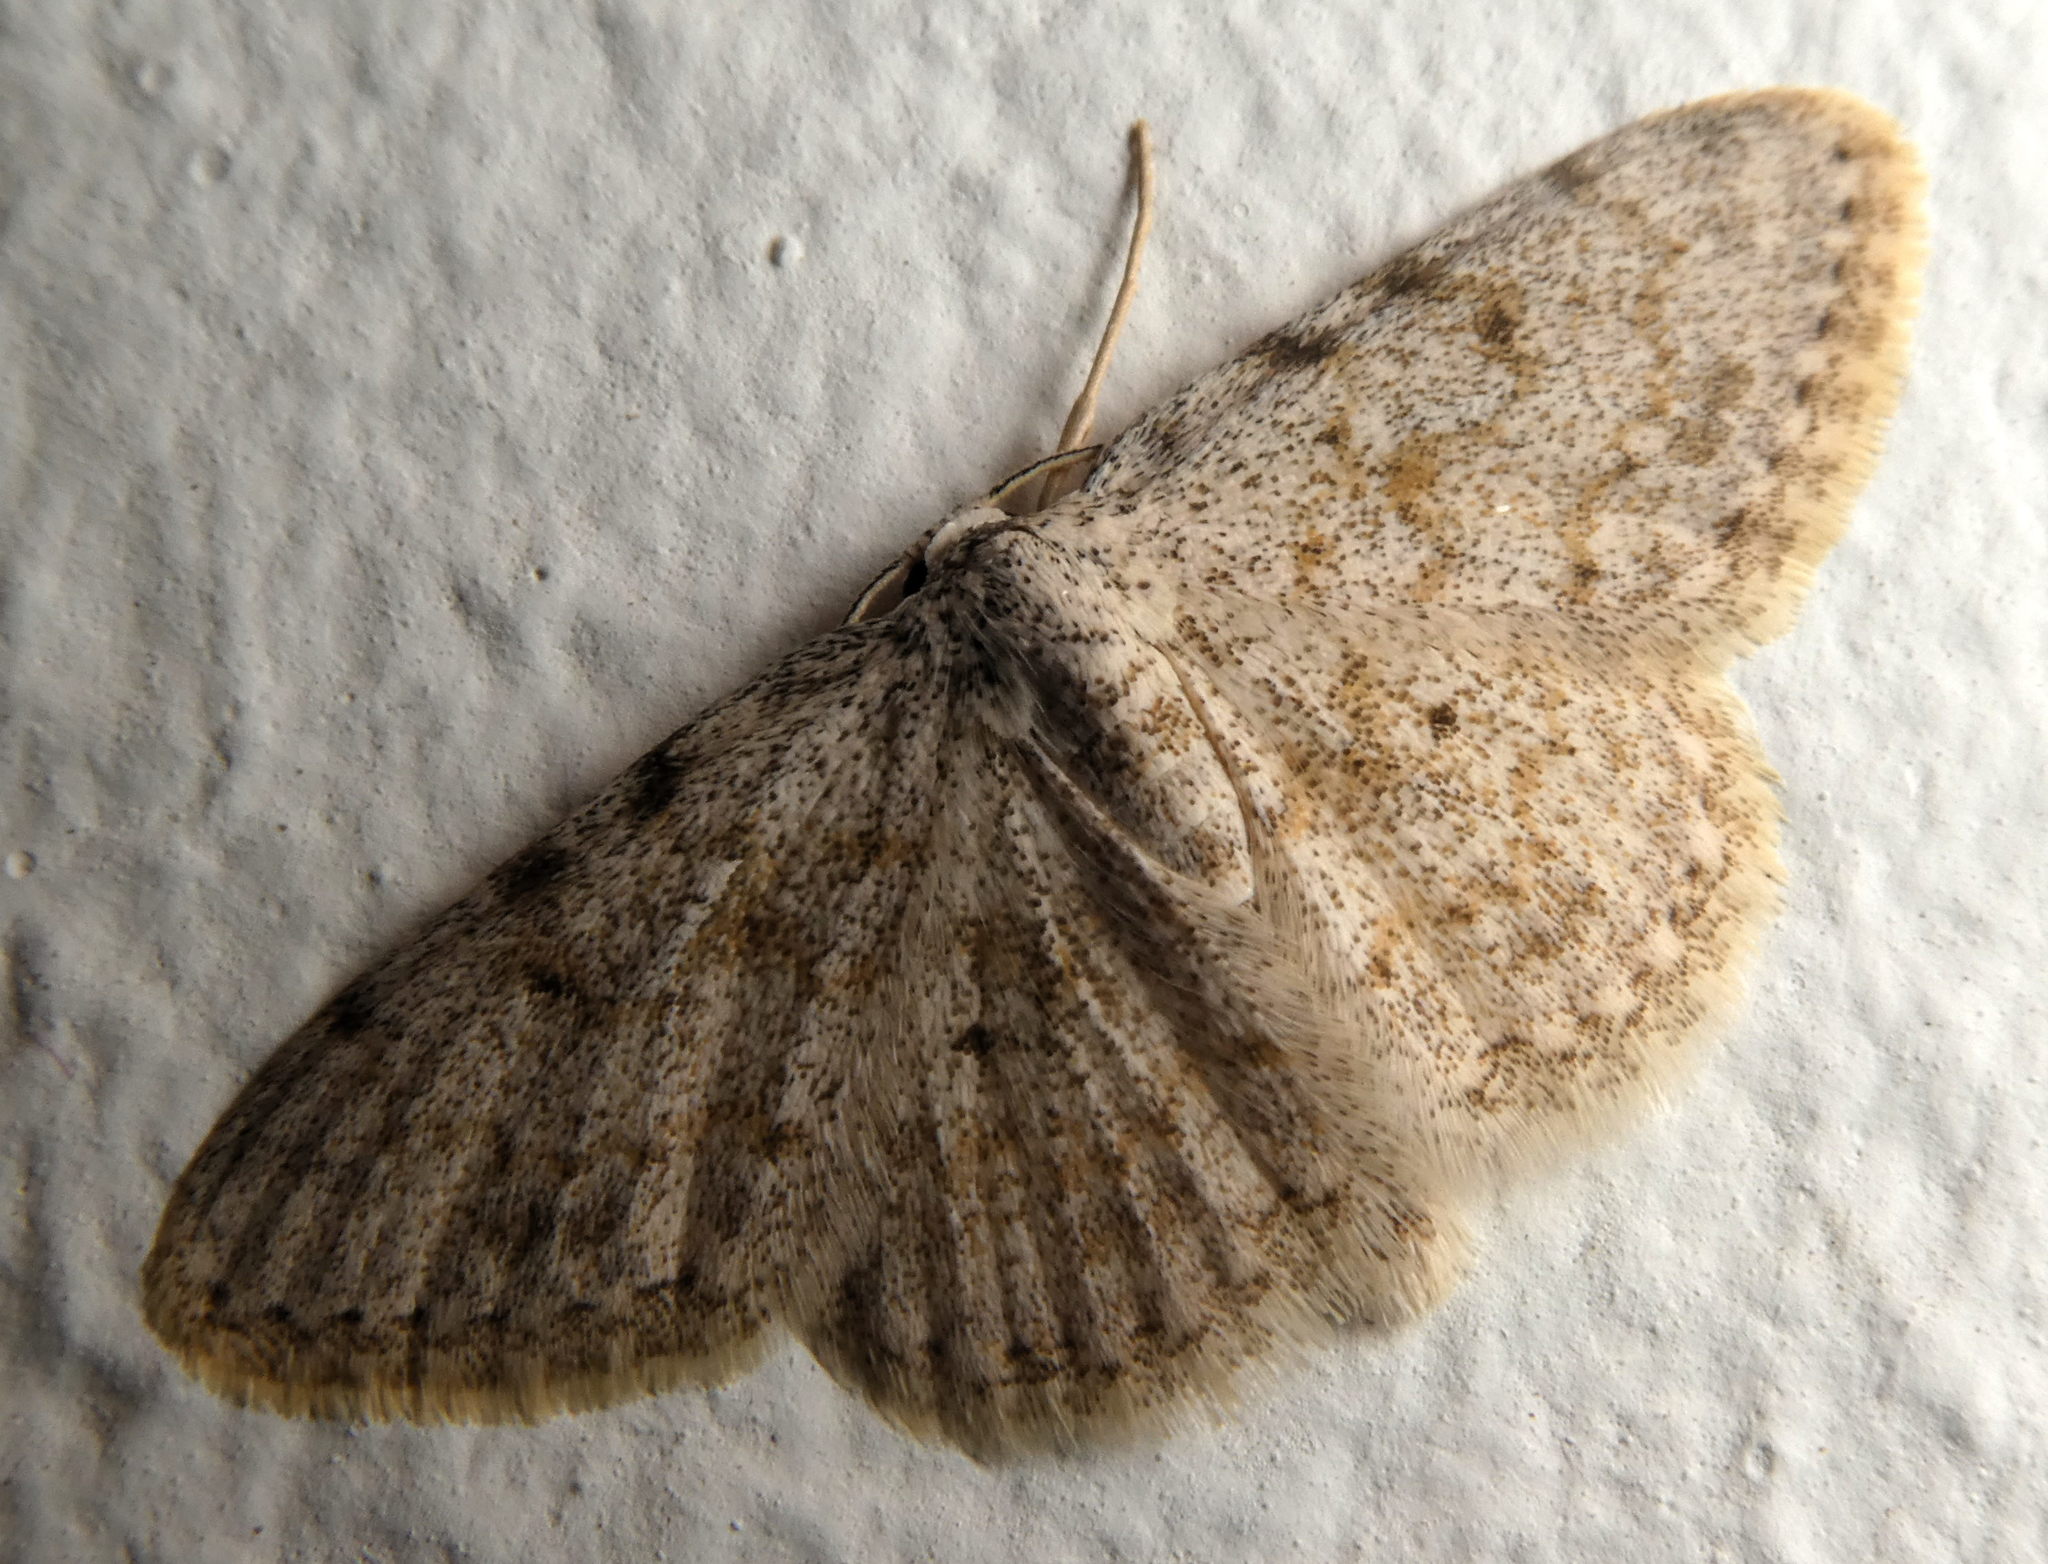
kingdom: Animalia
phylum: Arthropoda
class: Insecta
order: Lepidoptera
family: Geometridae
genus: Scopula
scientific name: Scopula luridata
